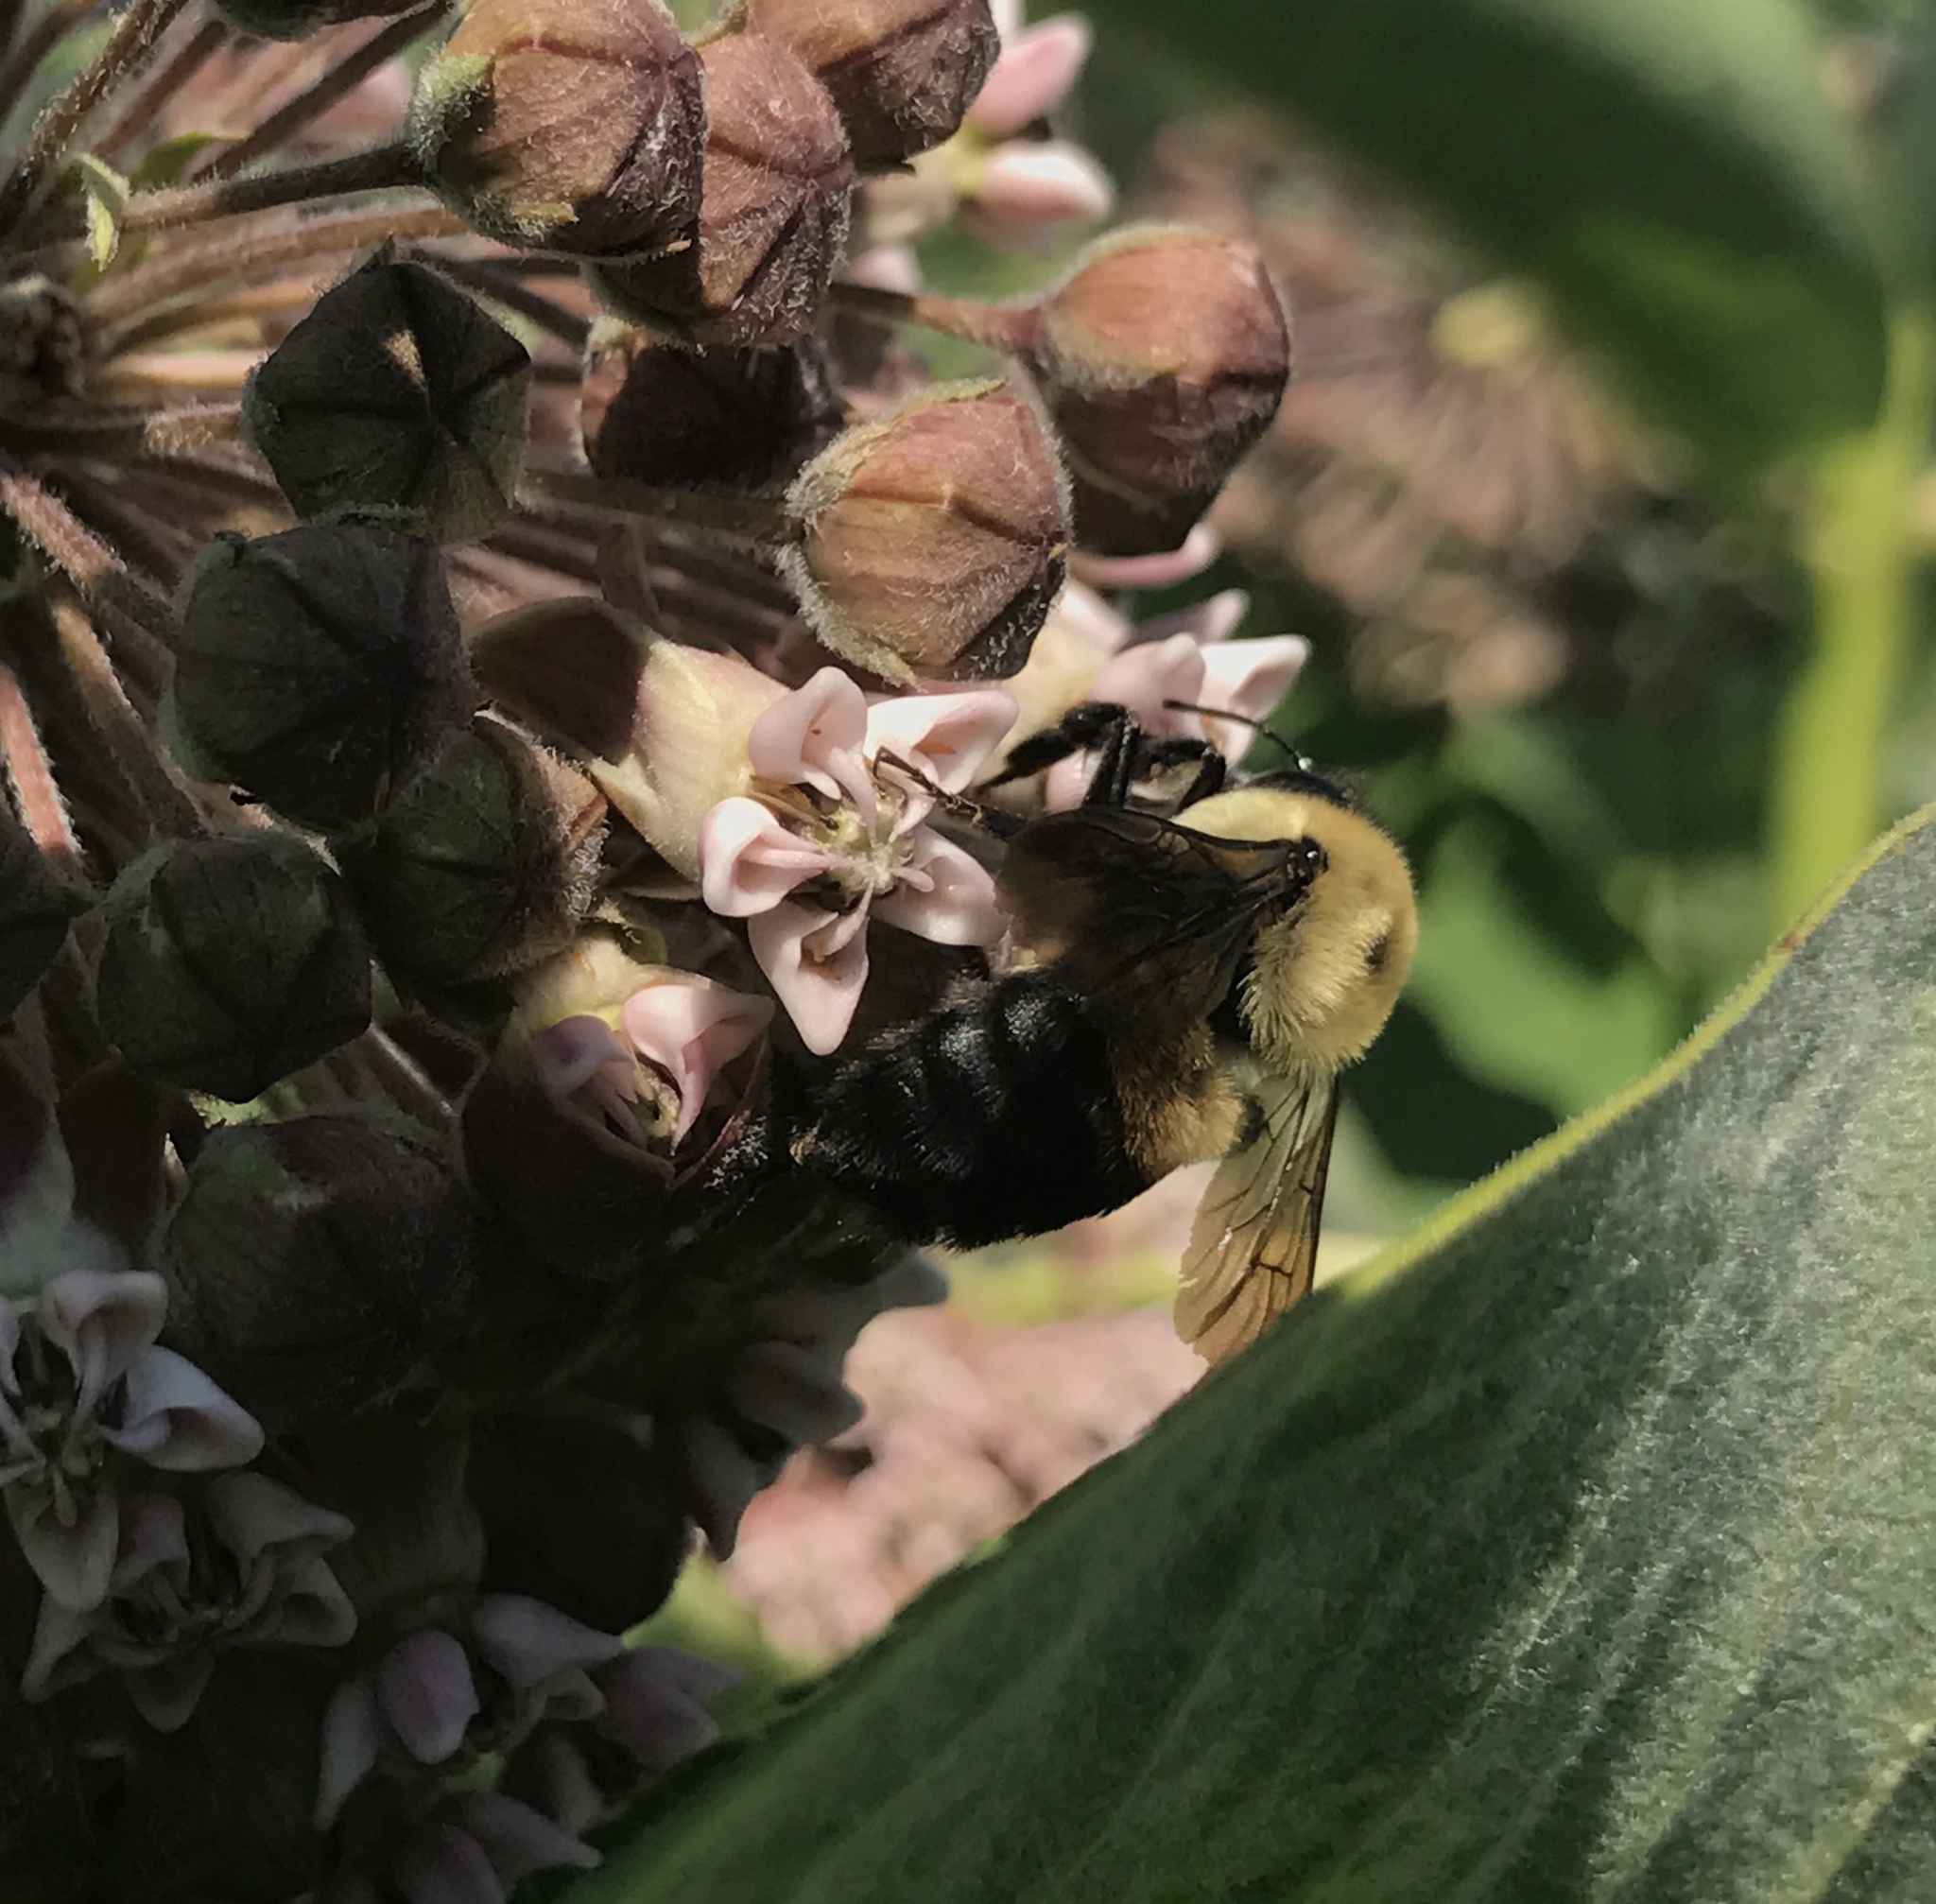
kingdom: Animalia
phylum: Arthropoda
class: Insecta
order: Hymenoptera
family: Apidae
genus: Bombus
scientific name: Bombus griseocollis
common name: Brown-belted bumble bee
